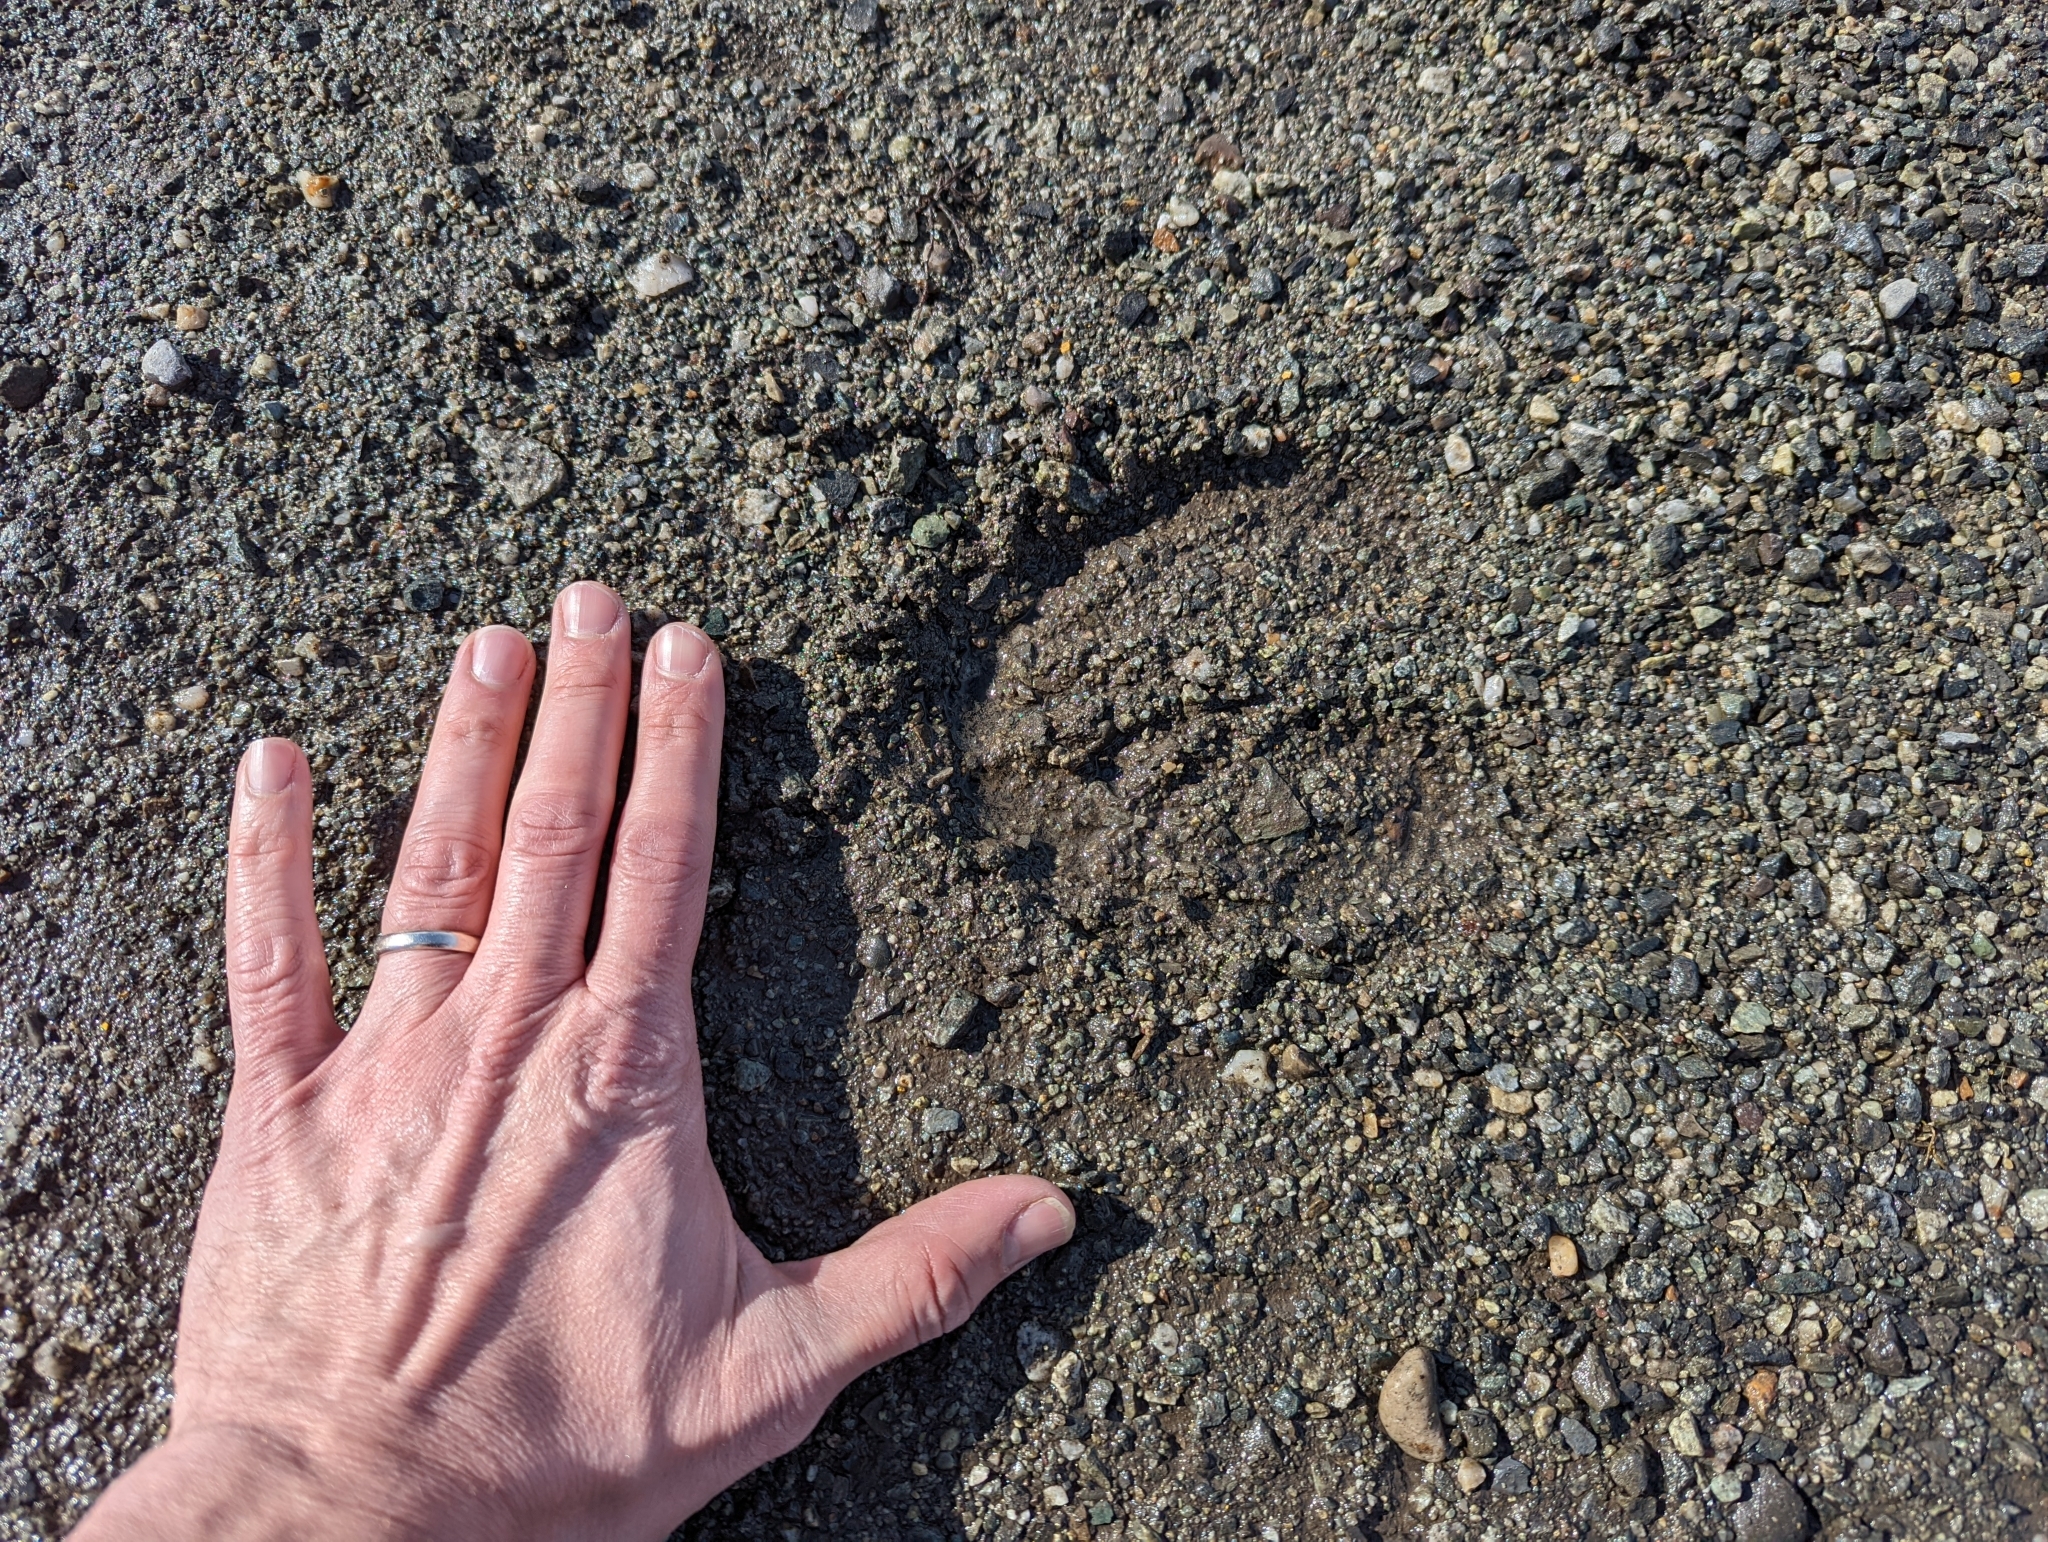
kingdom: Animalia
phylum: Chordata
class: Mammalia
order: Artiodactyla
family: Cervidae
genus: Alces
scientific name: Alces alces
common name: Moose
